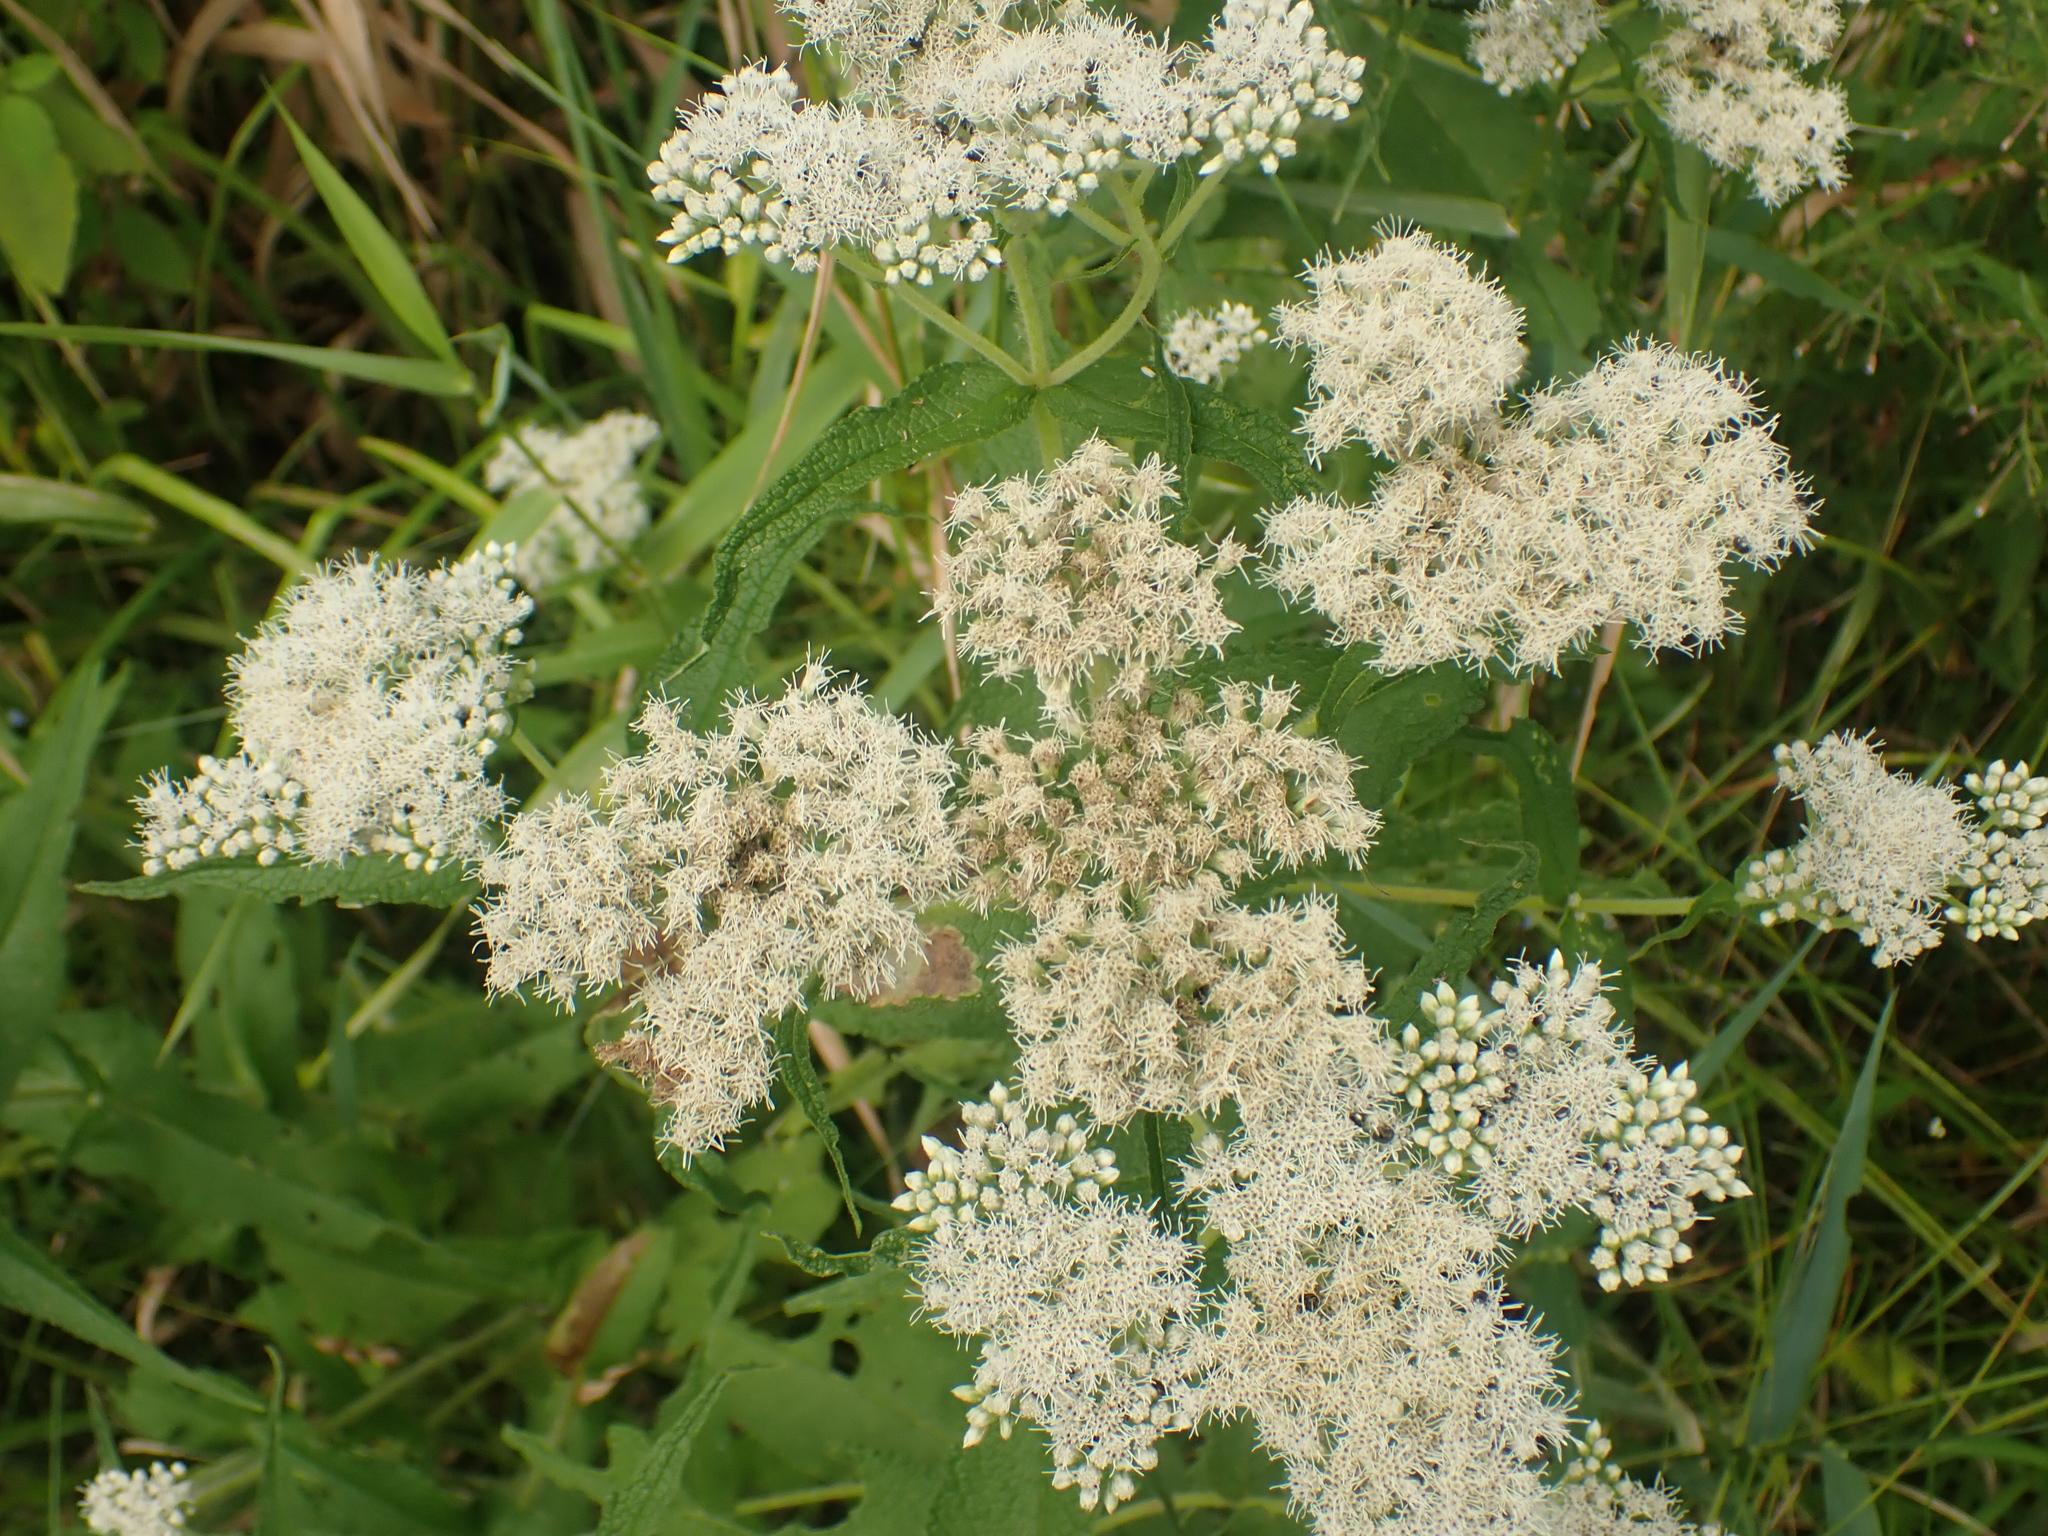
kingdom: Plantae
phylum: Tracheophyta
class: Magnoliopsida
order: Asterales
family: Asteraceae
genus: Eupatorium
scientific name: Eupatorium perfoliatum
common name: Boneset
